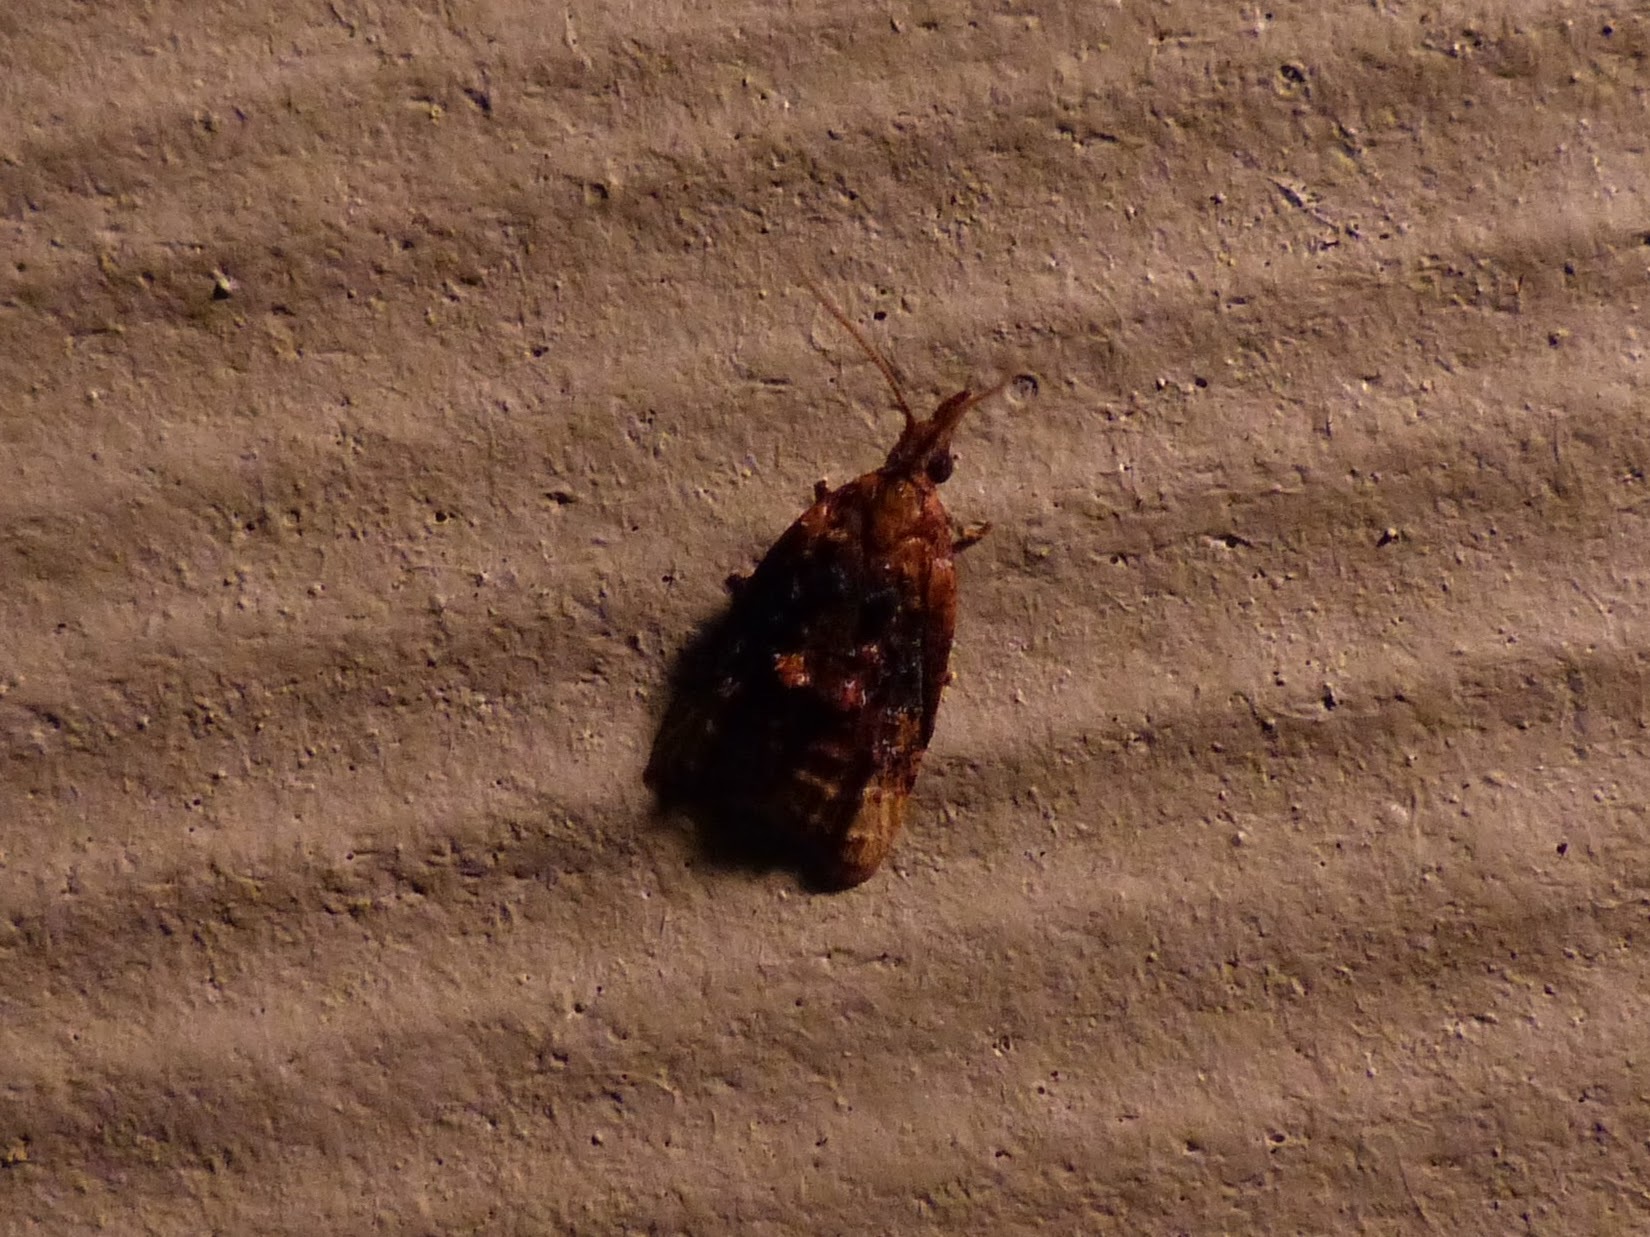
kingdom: Animalia
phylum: Arthropoda
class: Insecta
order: Lepidoptera
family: Tortricidae
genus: Platynota
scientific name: Platynota flavedana
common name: Black-shaded platynota moth
